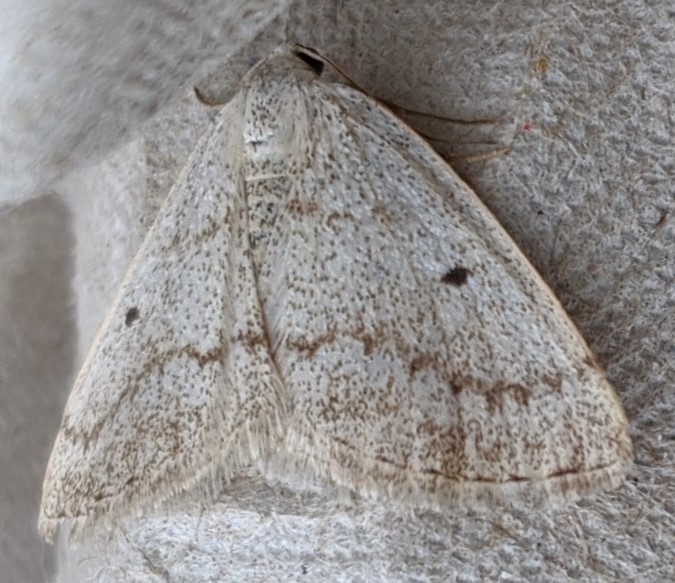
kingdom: Animalia
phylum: Arthropoda
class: Insecta
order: Lepidoptera
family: Geometridae
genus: Lomographa
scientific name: Lomographa glomeraria
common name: Gray spring moth
